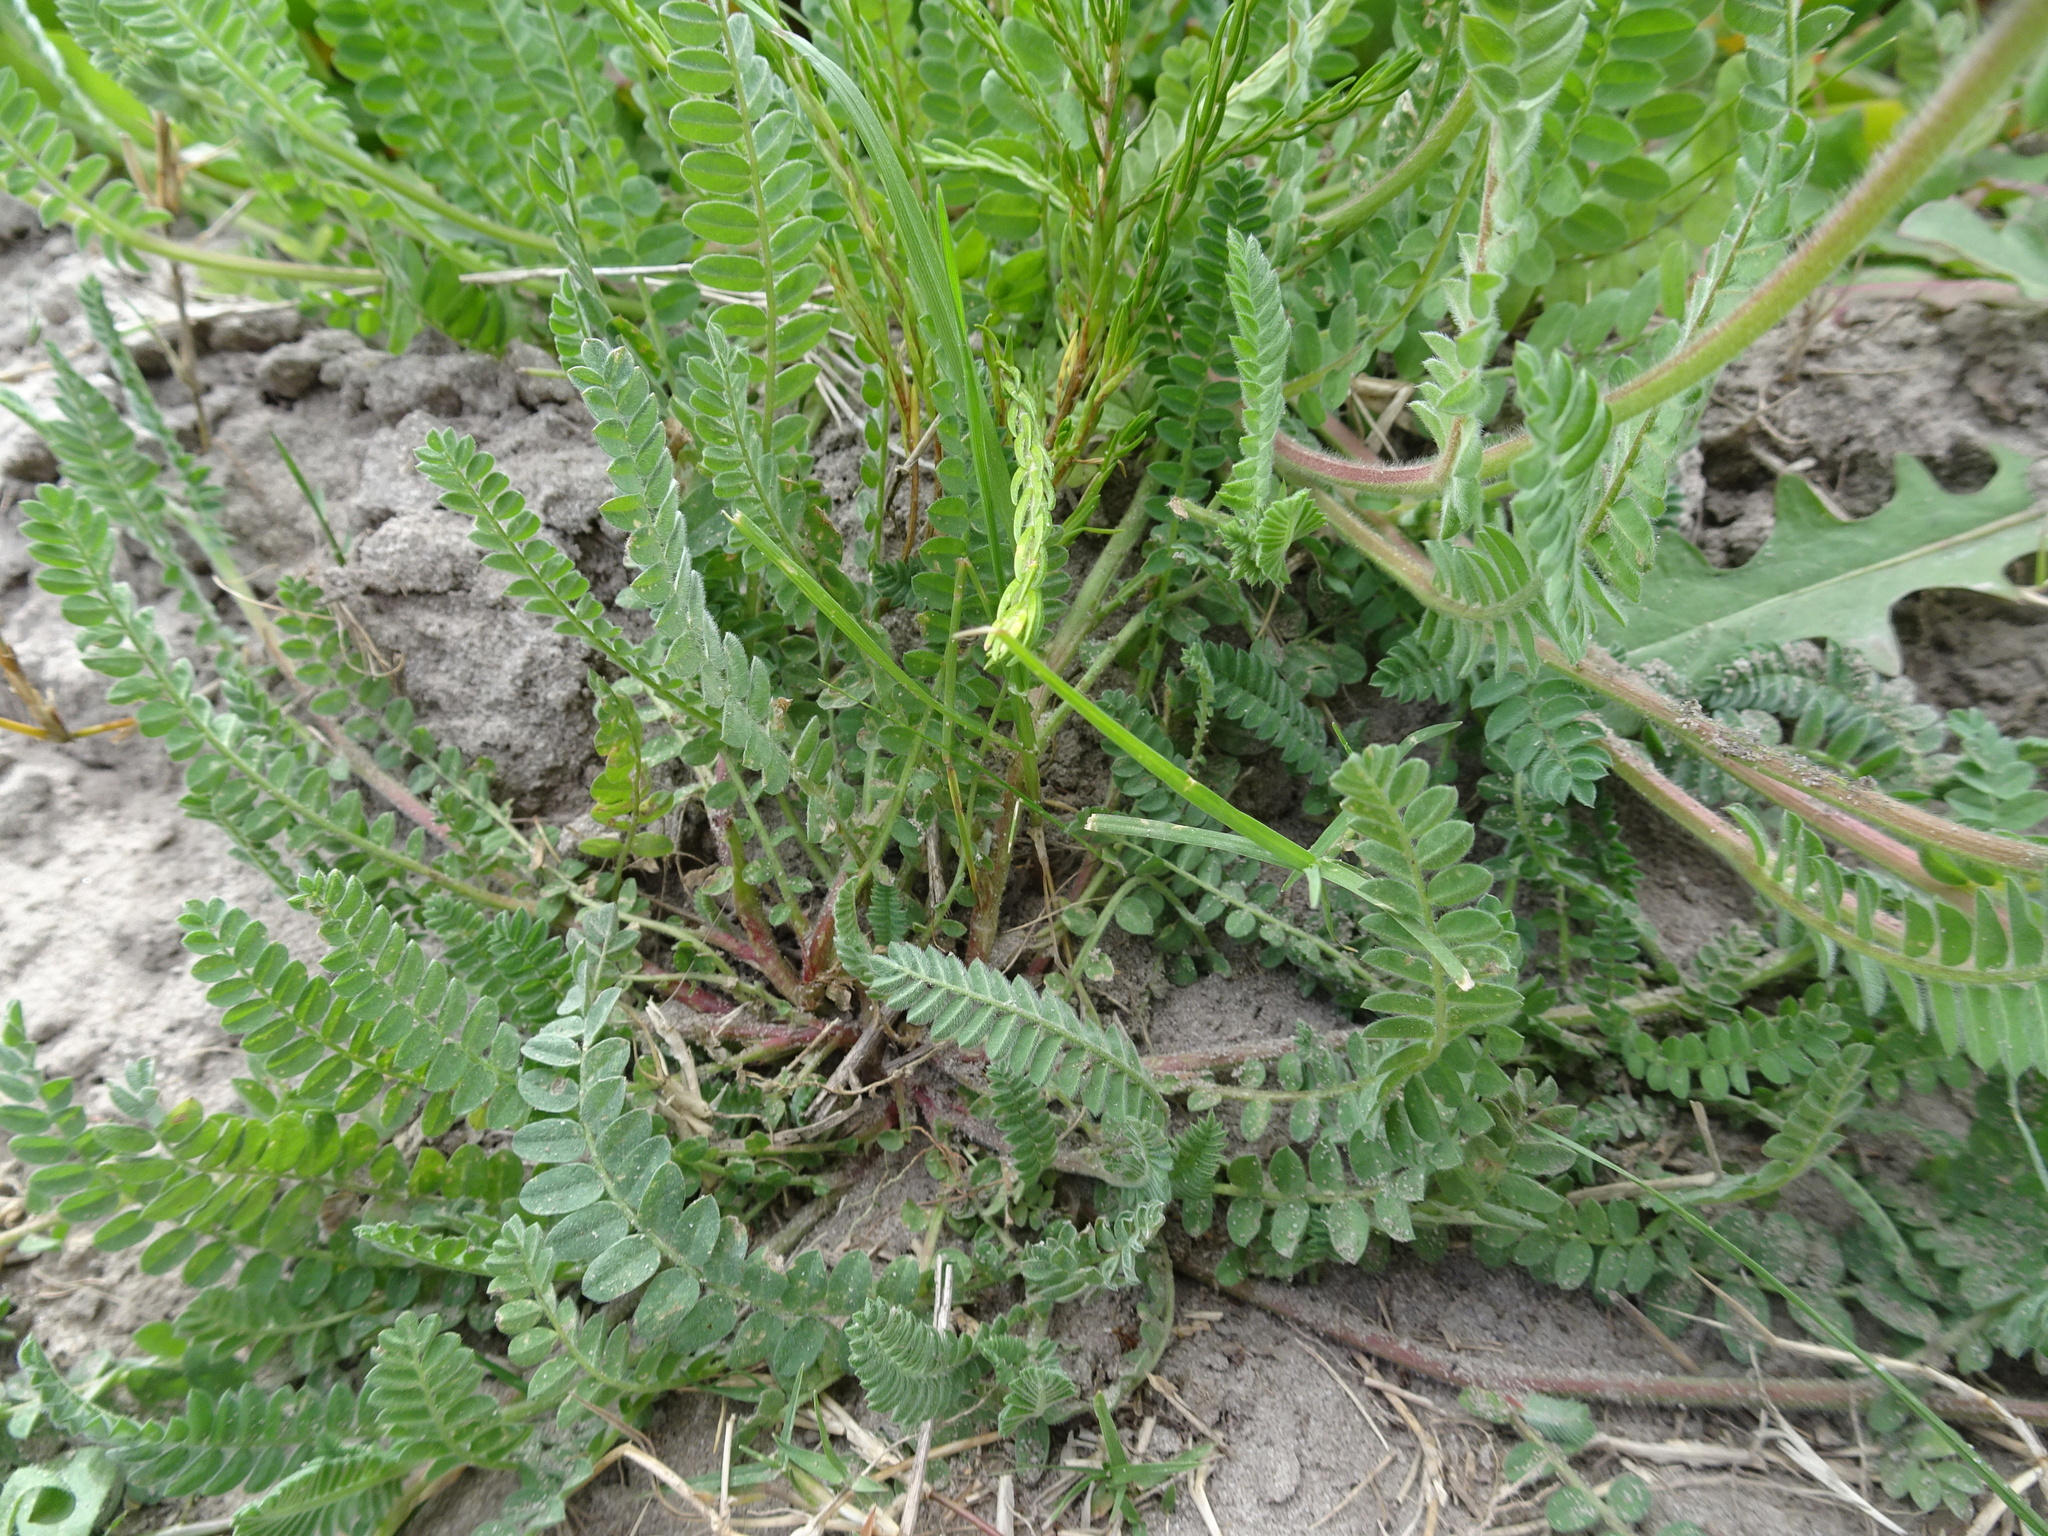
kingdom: Plantae
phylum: Tracheophyta
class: Magnoliopsida
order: Fabales
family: Fabaceae
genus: Ornithopus
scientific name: Ornithopus compressus
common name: Yellow serradella
